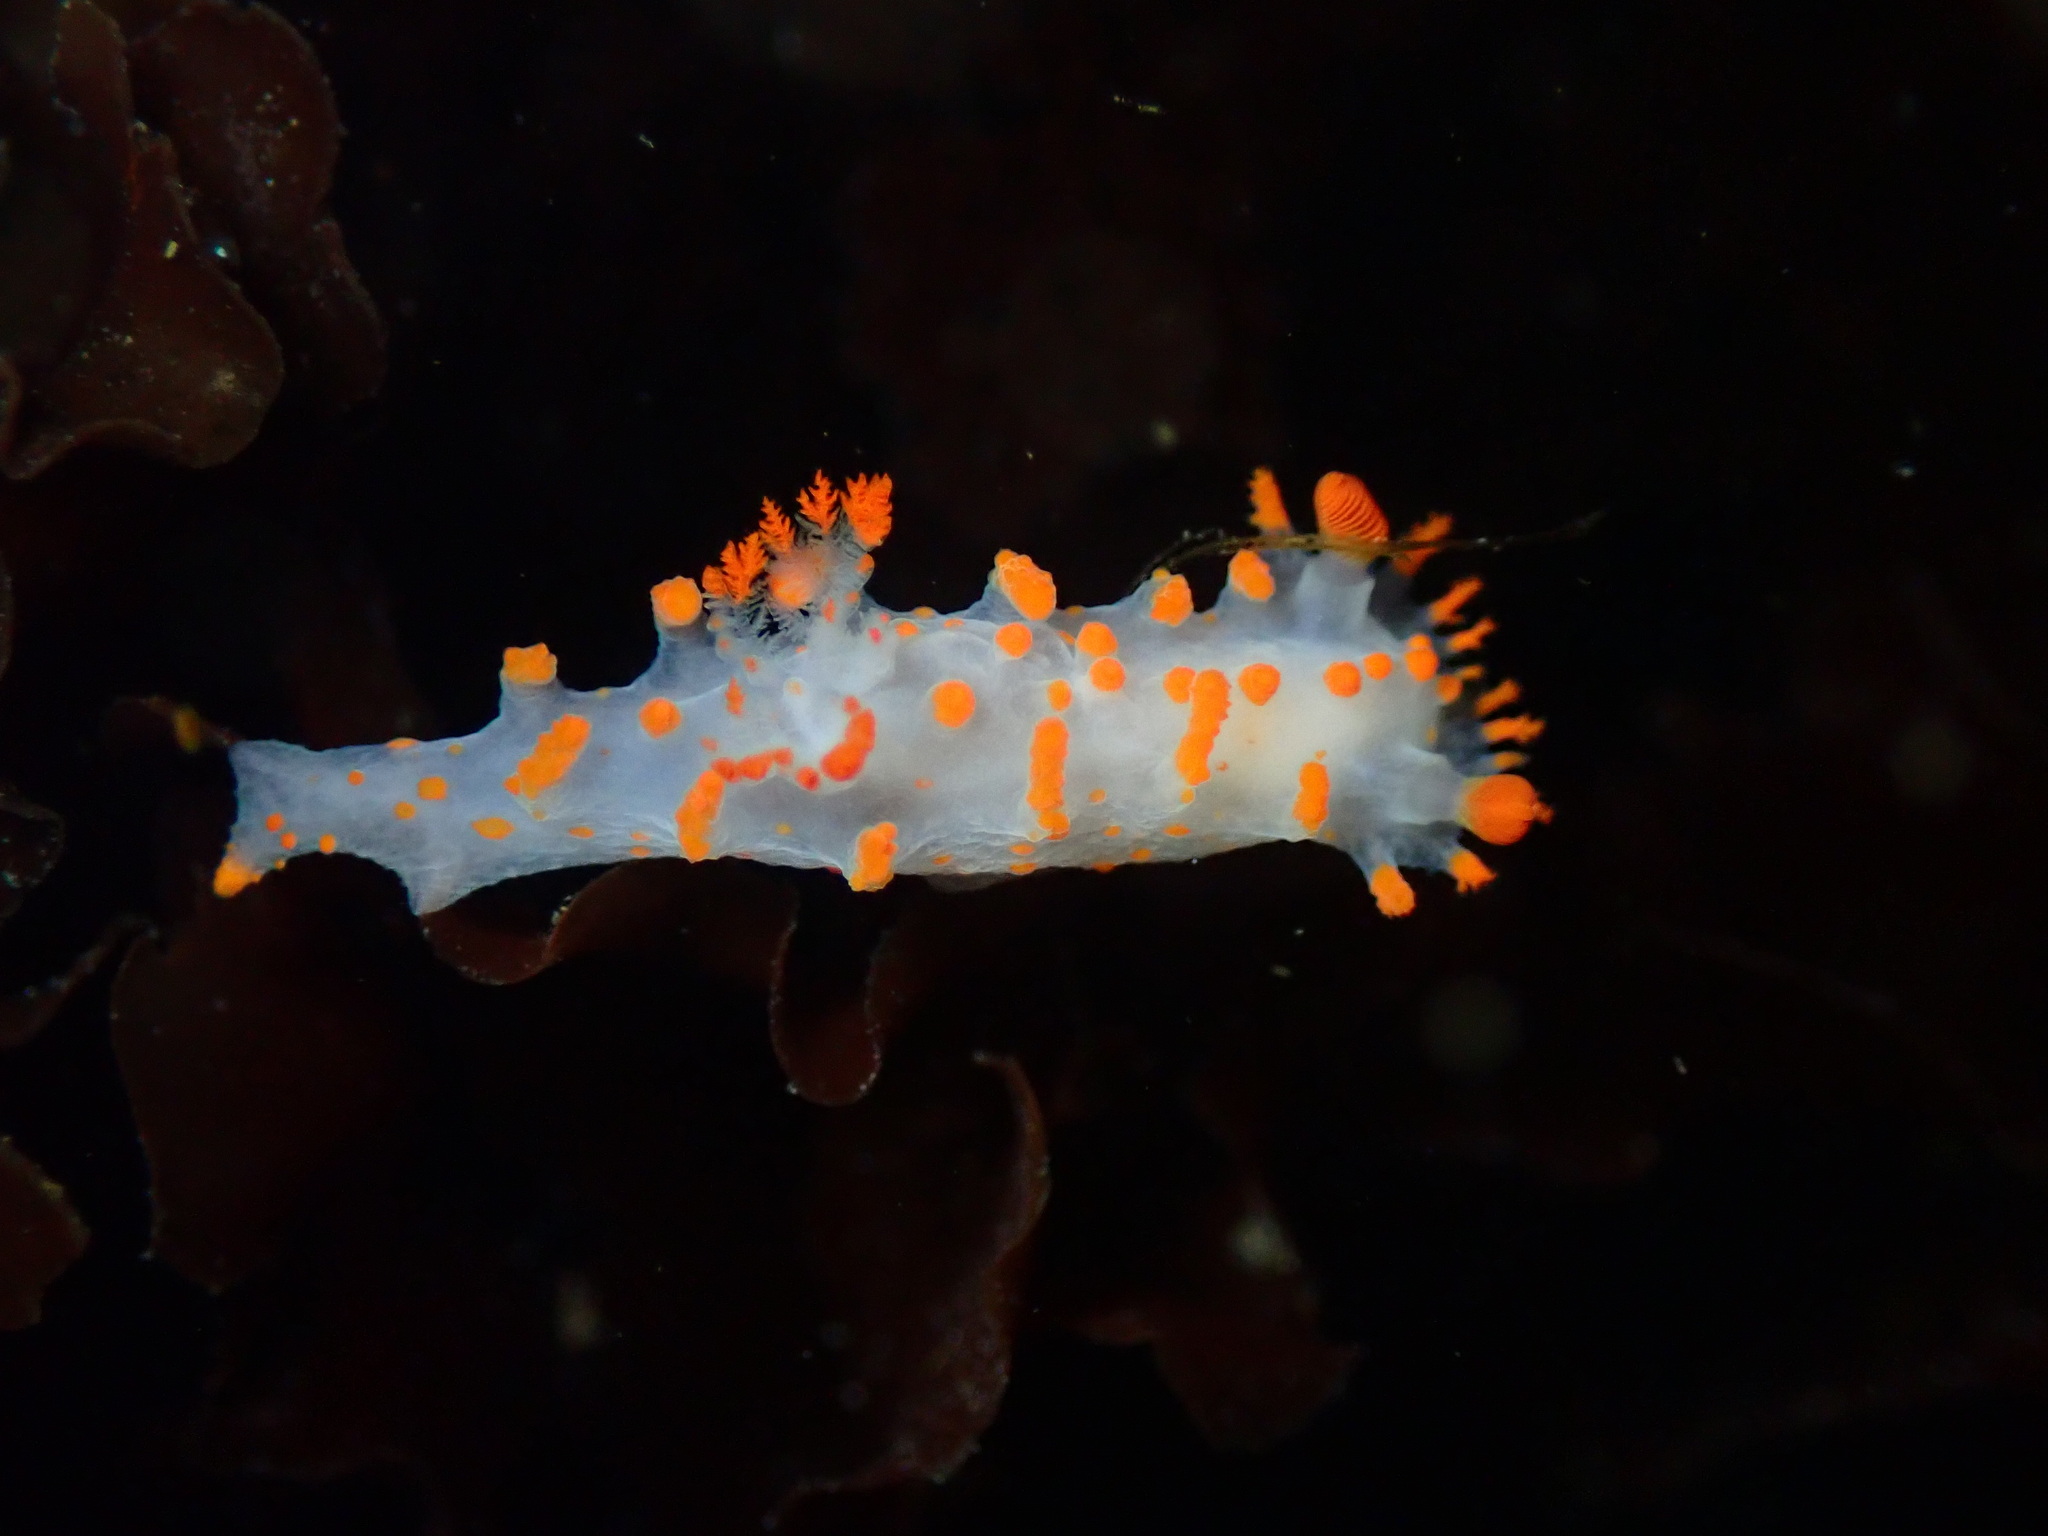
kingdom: Animalia
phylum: Mollusca
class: Gastropoda
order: Nudibranchia
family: Polyceridae
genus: Triopha
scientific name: Triopha catalinae
